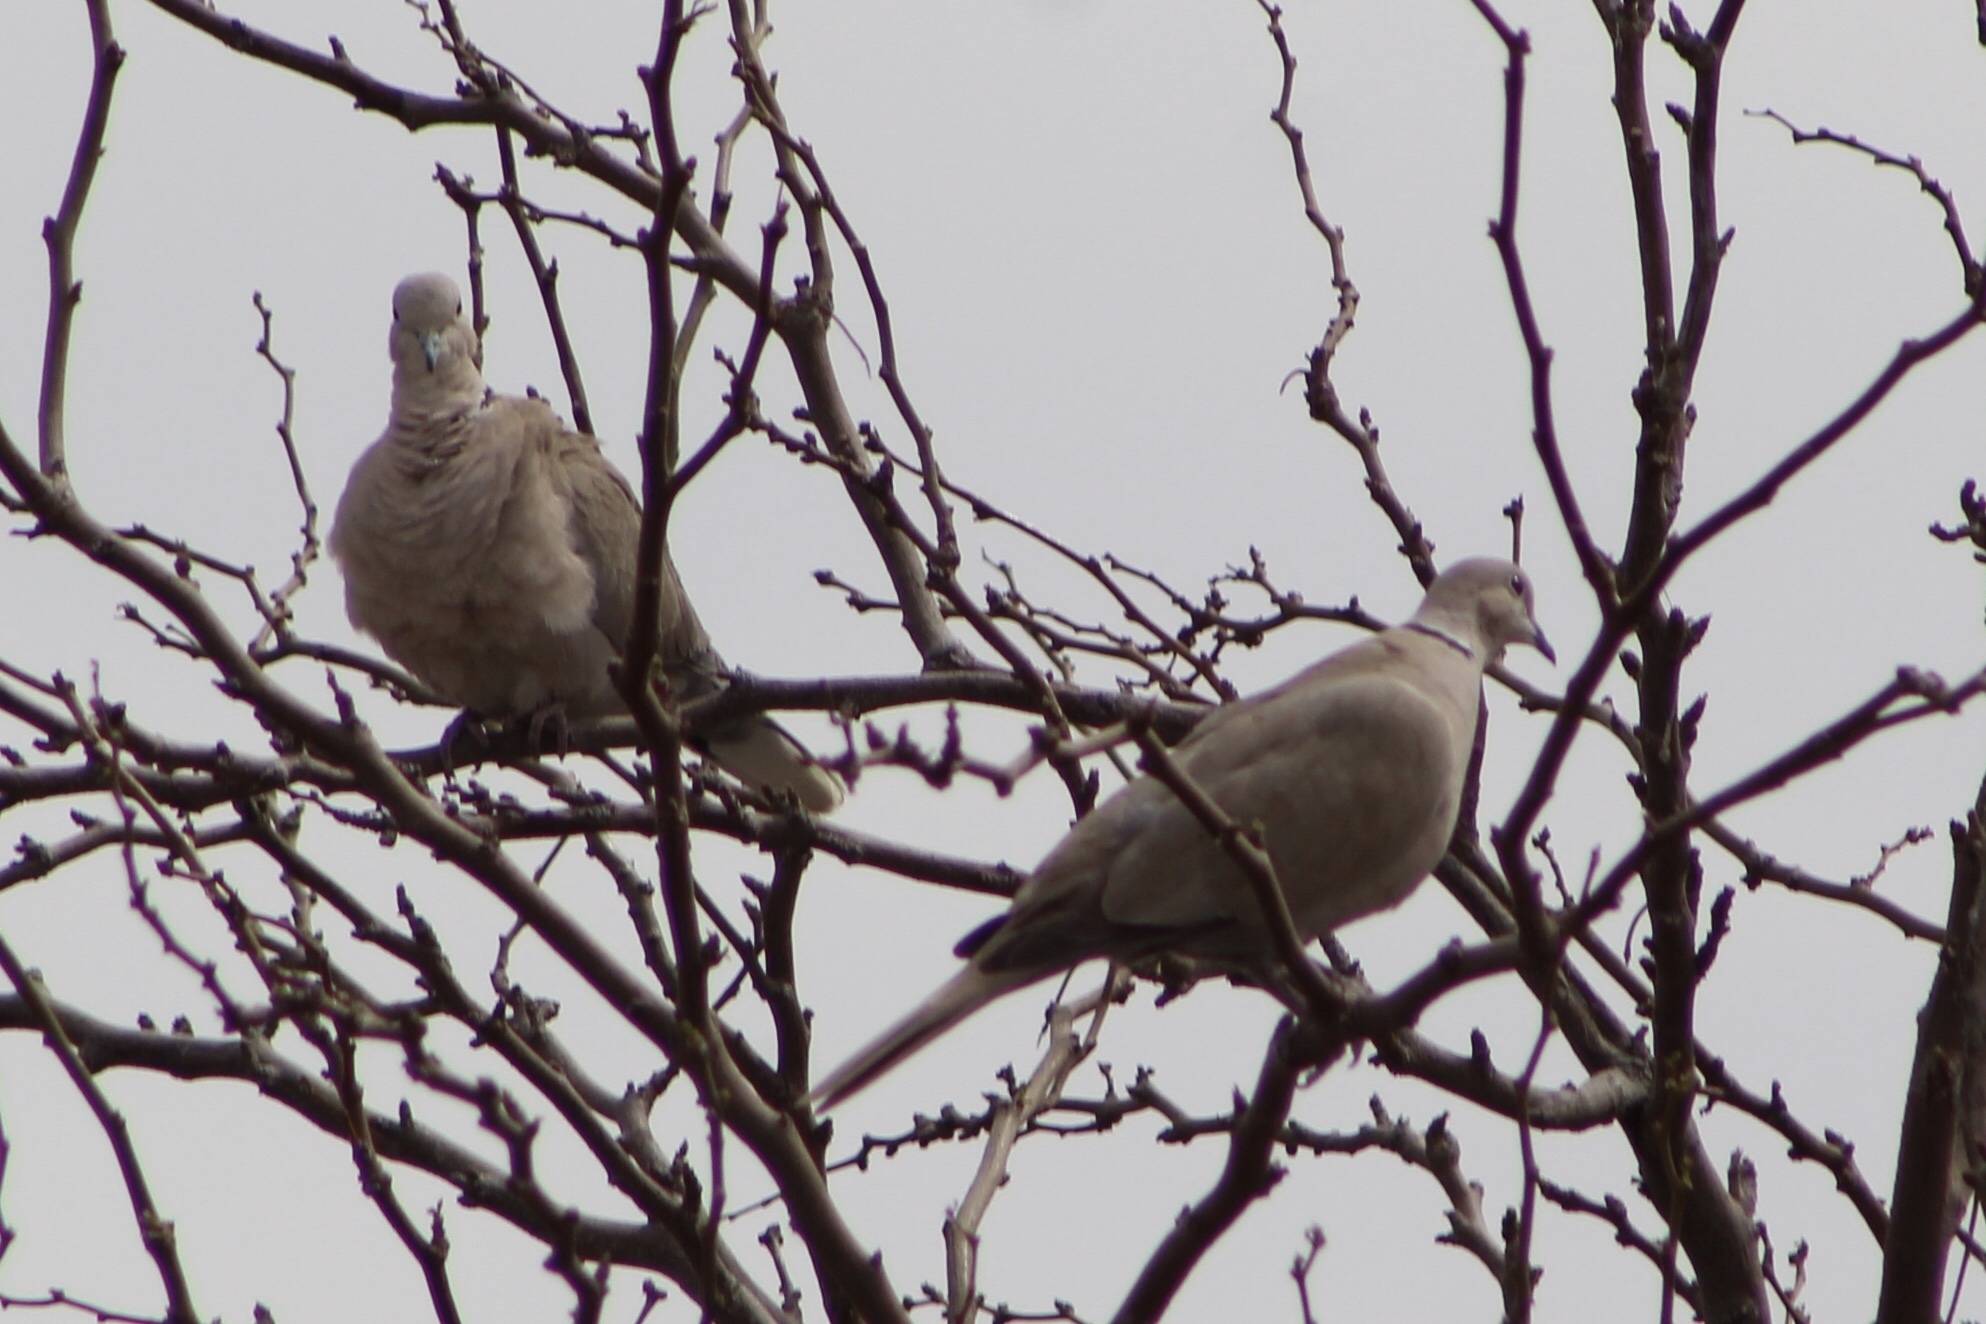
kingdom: Animalia
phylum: Chordata
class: Aves
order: Columbiformes
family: Columbidae
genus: Streptopelia
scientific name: Streptopelia decaocto
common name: Eurasian collared dove
